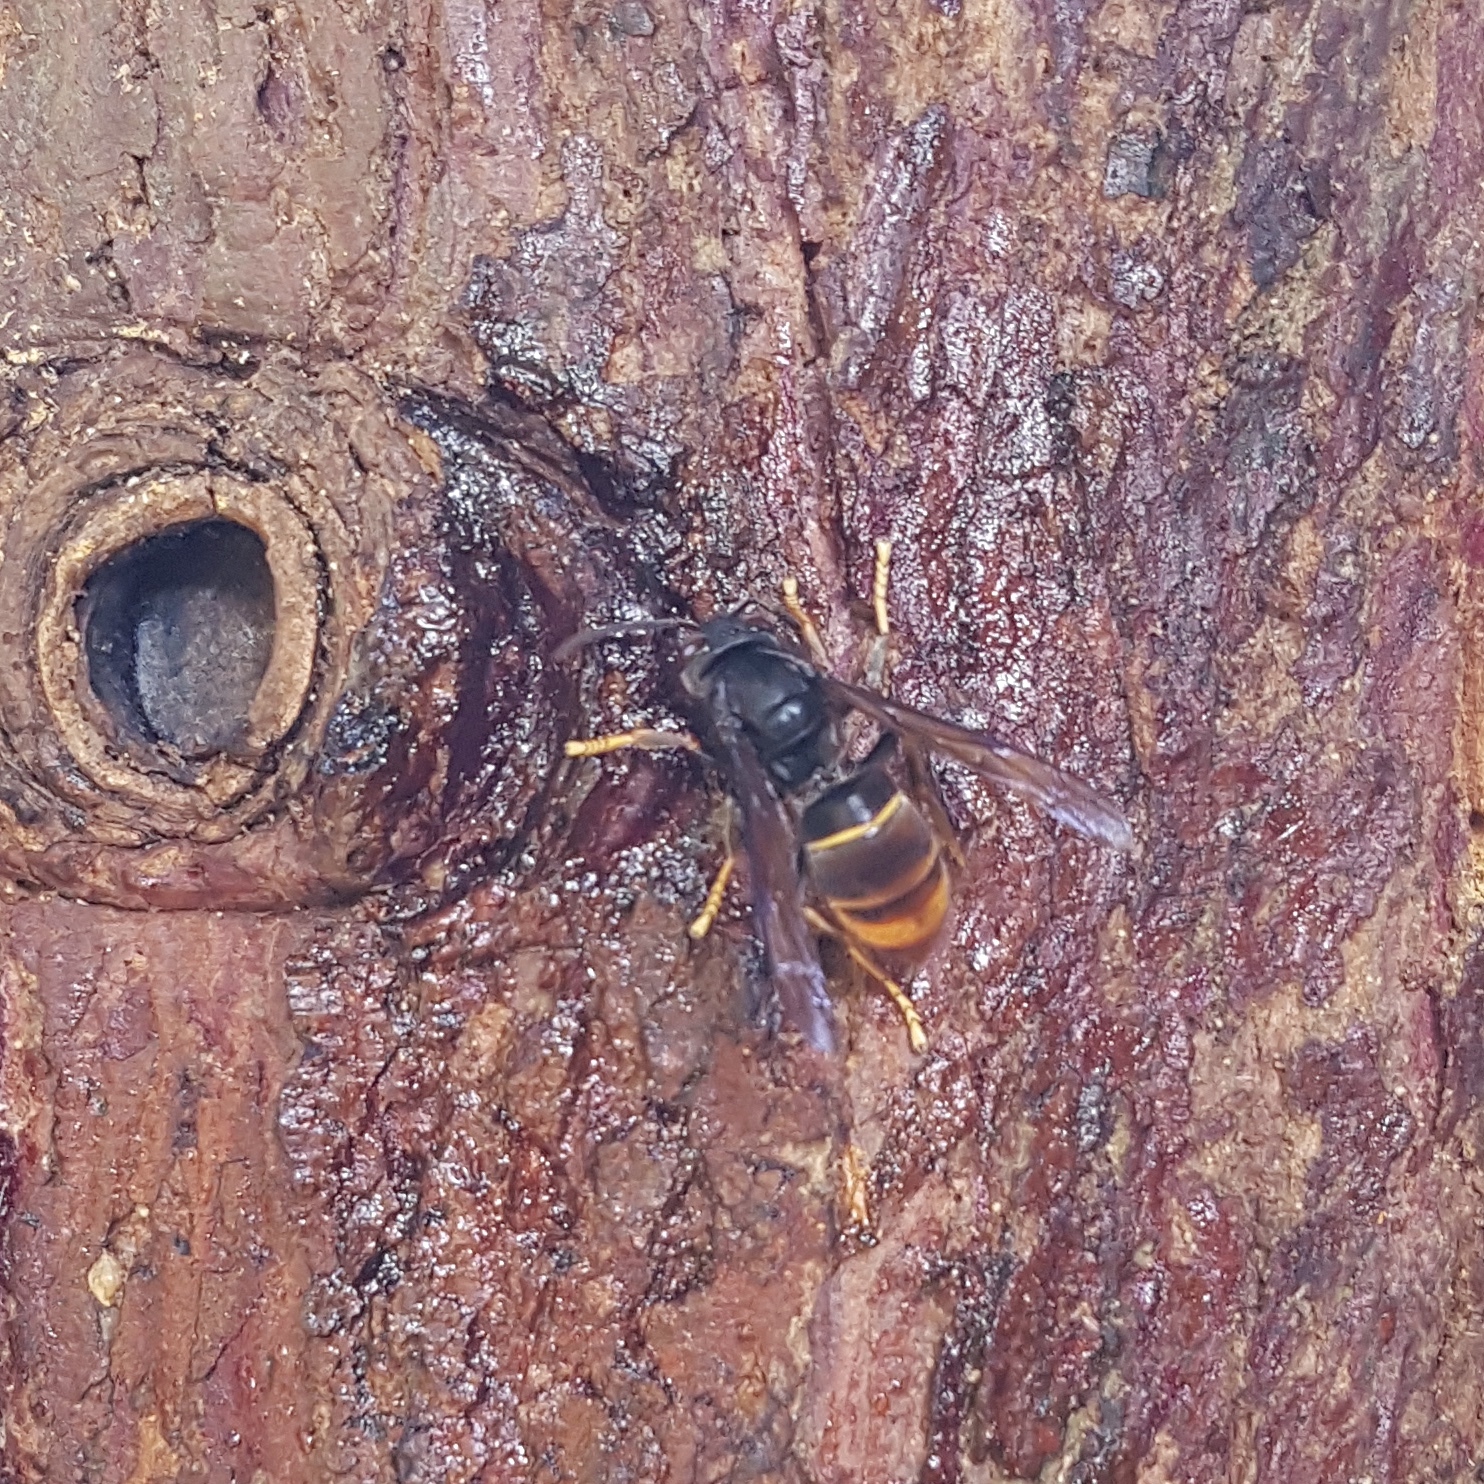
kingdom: Animalia
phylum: Arthropoda
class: Insecta
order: Hymenoptera
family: Vespidae
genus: Vespa
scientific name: Vespa velutina
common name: Asian hornet
